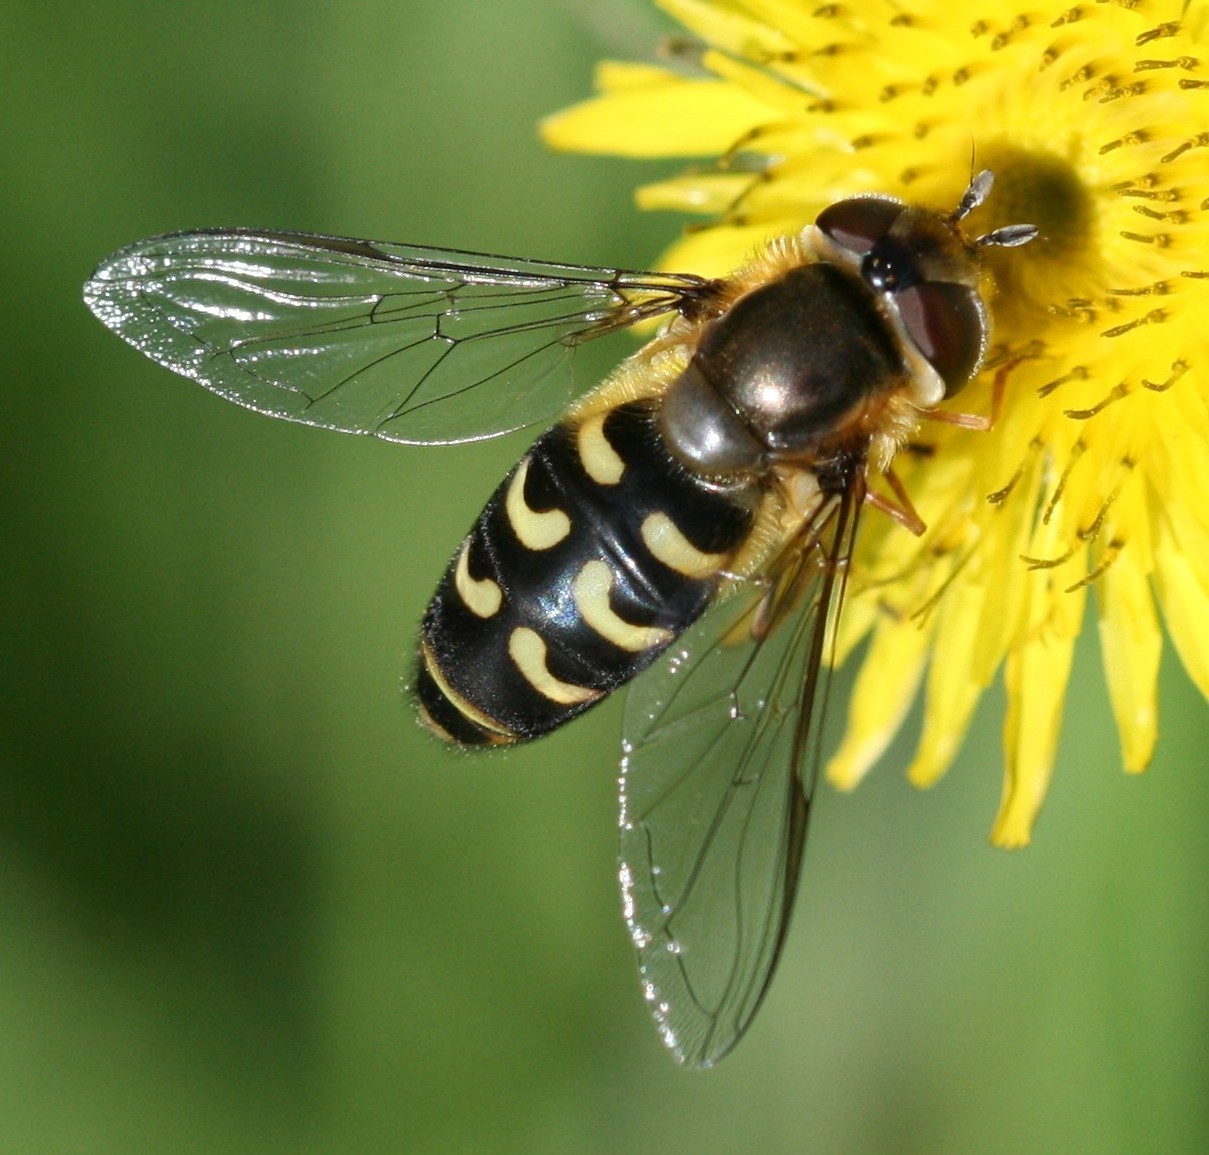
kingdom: Animalia
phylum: Arthropoda
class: Insecta
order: Diptera
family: Syrphidae
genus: Scaeva
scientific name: Scaeva selenitica
